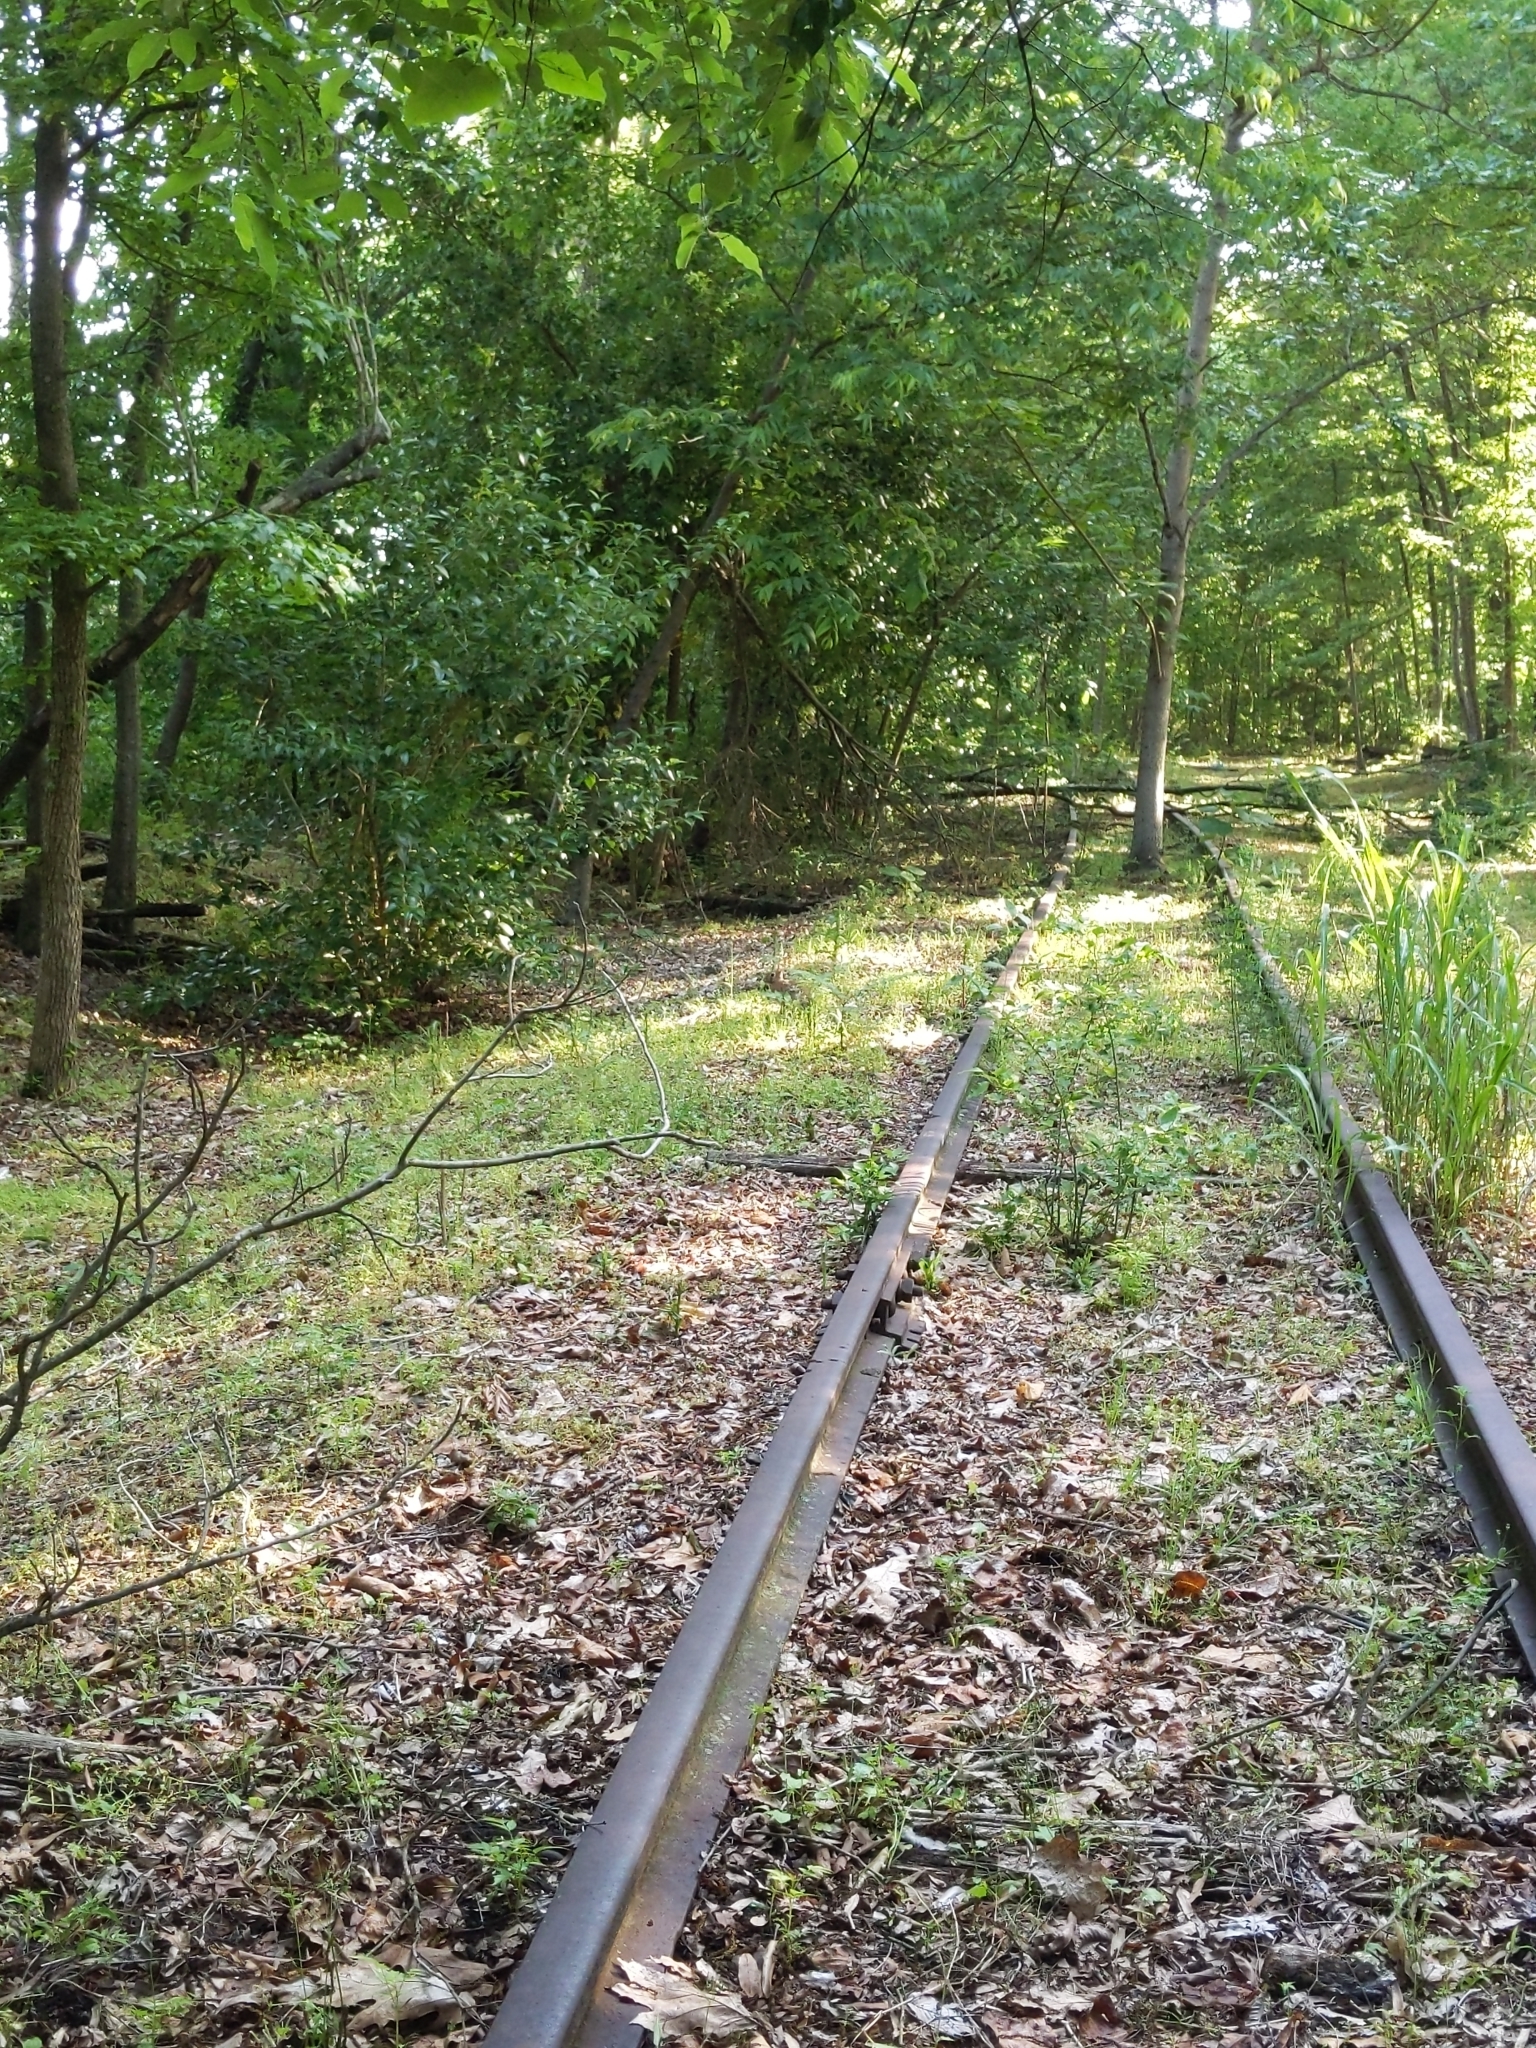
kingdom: Animalia
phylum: Chordata
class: Mammalia
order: Lagomorpha
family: Leporidae
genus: Sylvilagus
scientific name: Sylvilagus floridanus
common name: Eastern cottontail
